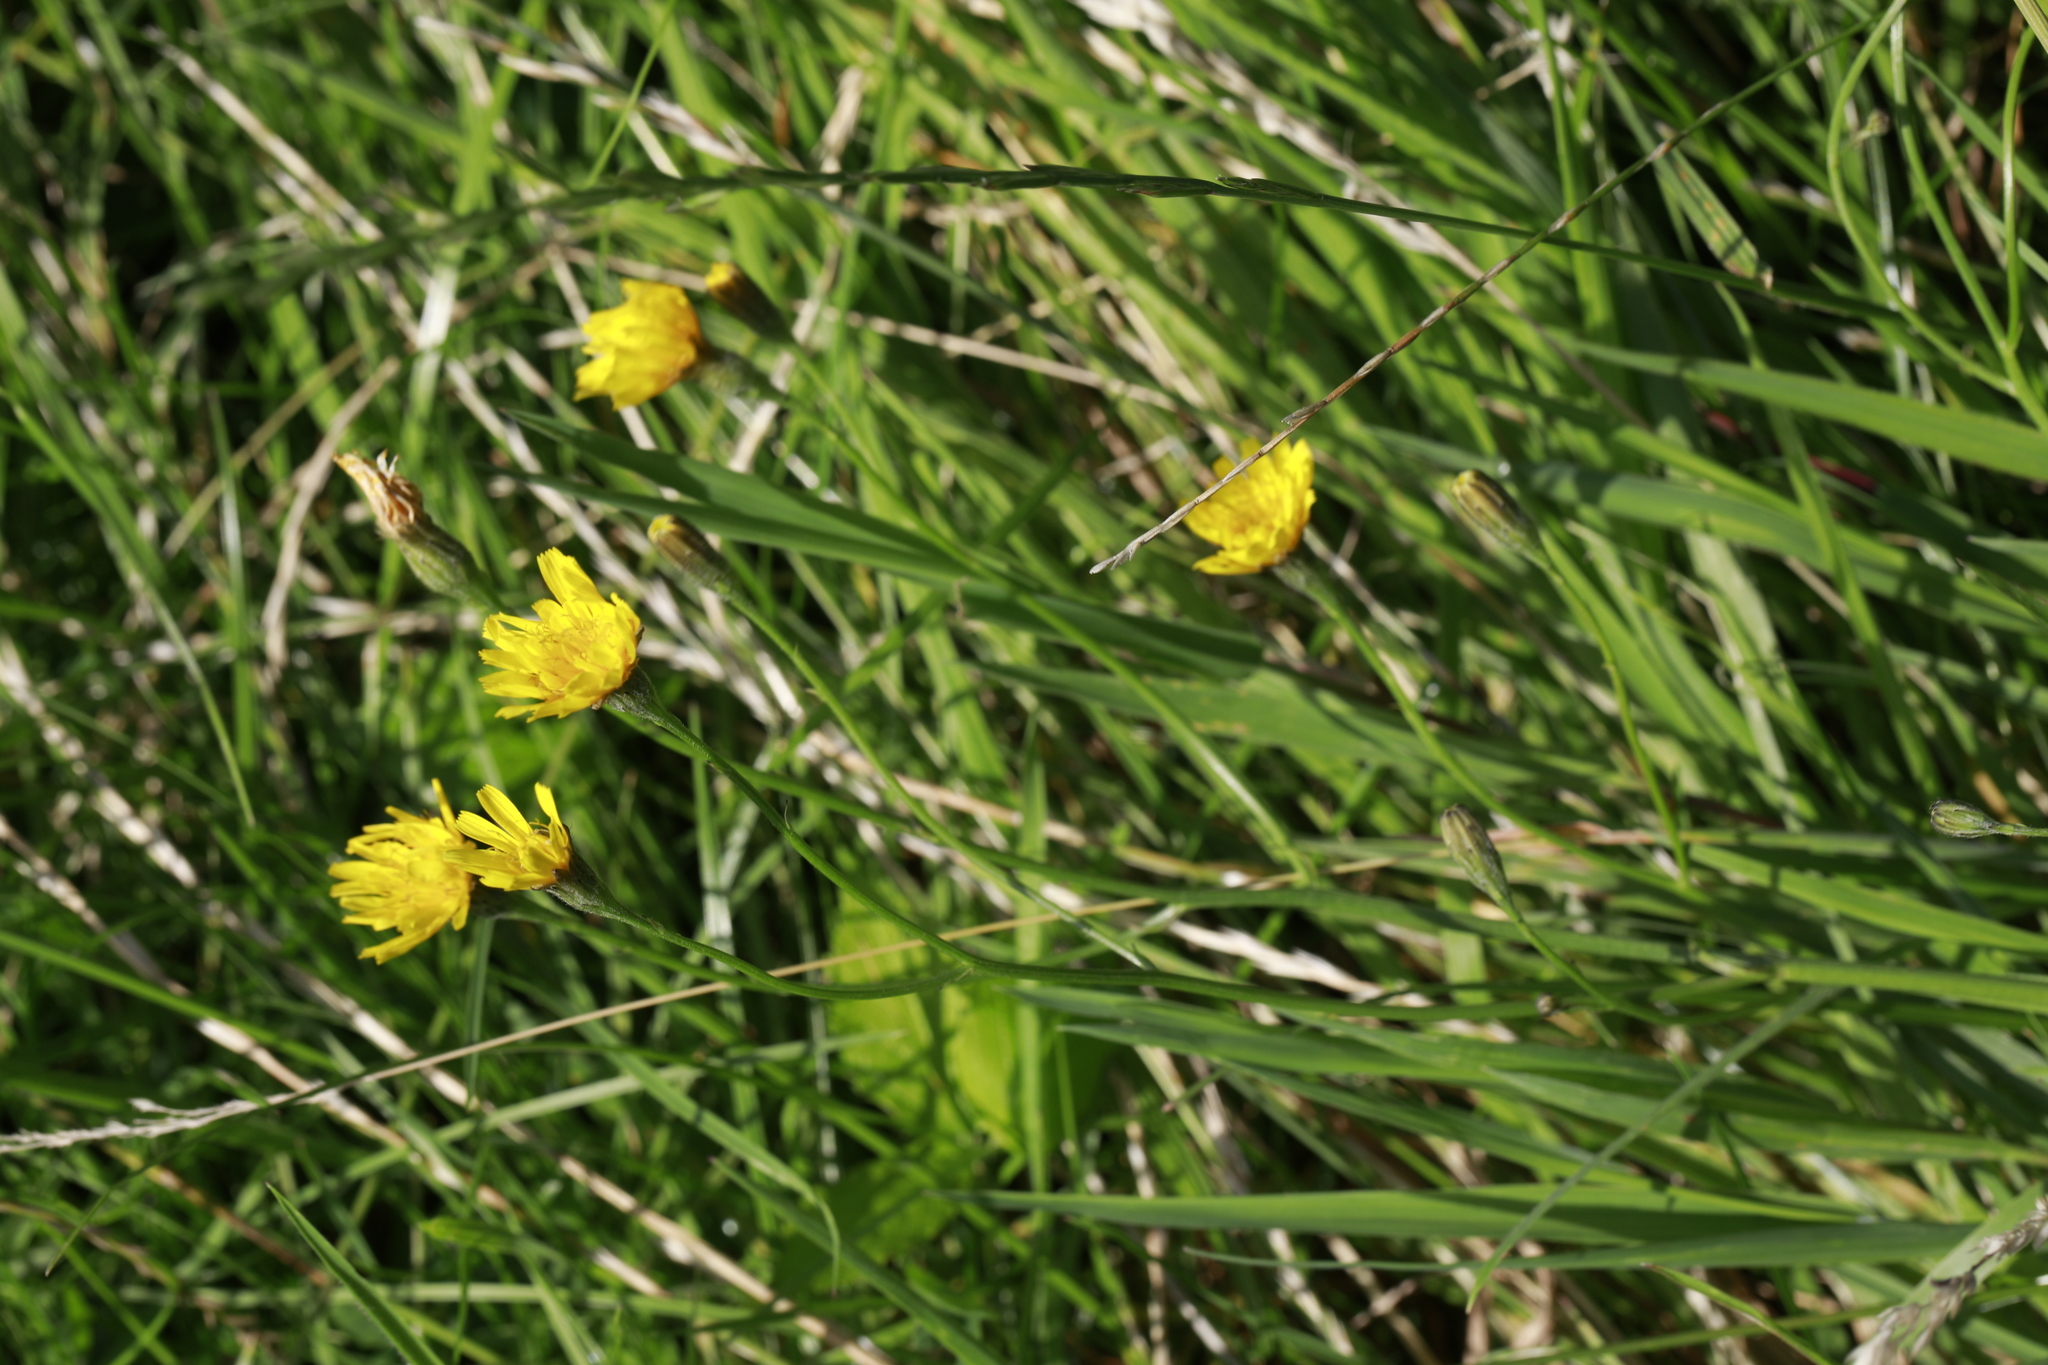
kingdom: Plantae
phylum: Tracheophyta
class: Magnoliopsida
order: Asterales
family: Asteraceae
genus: Hypochaeris
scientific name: Hypochaeris radicata
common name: Flatweed
